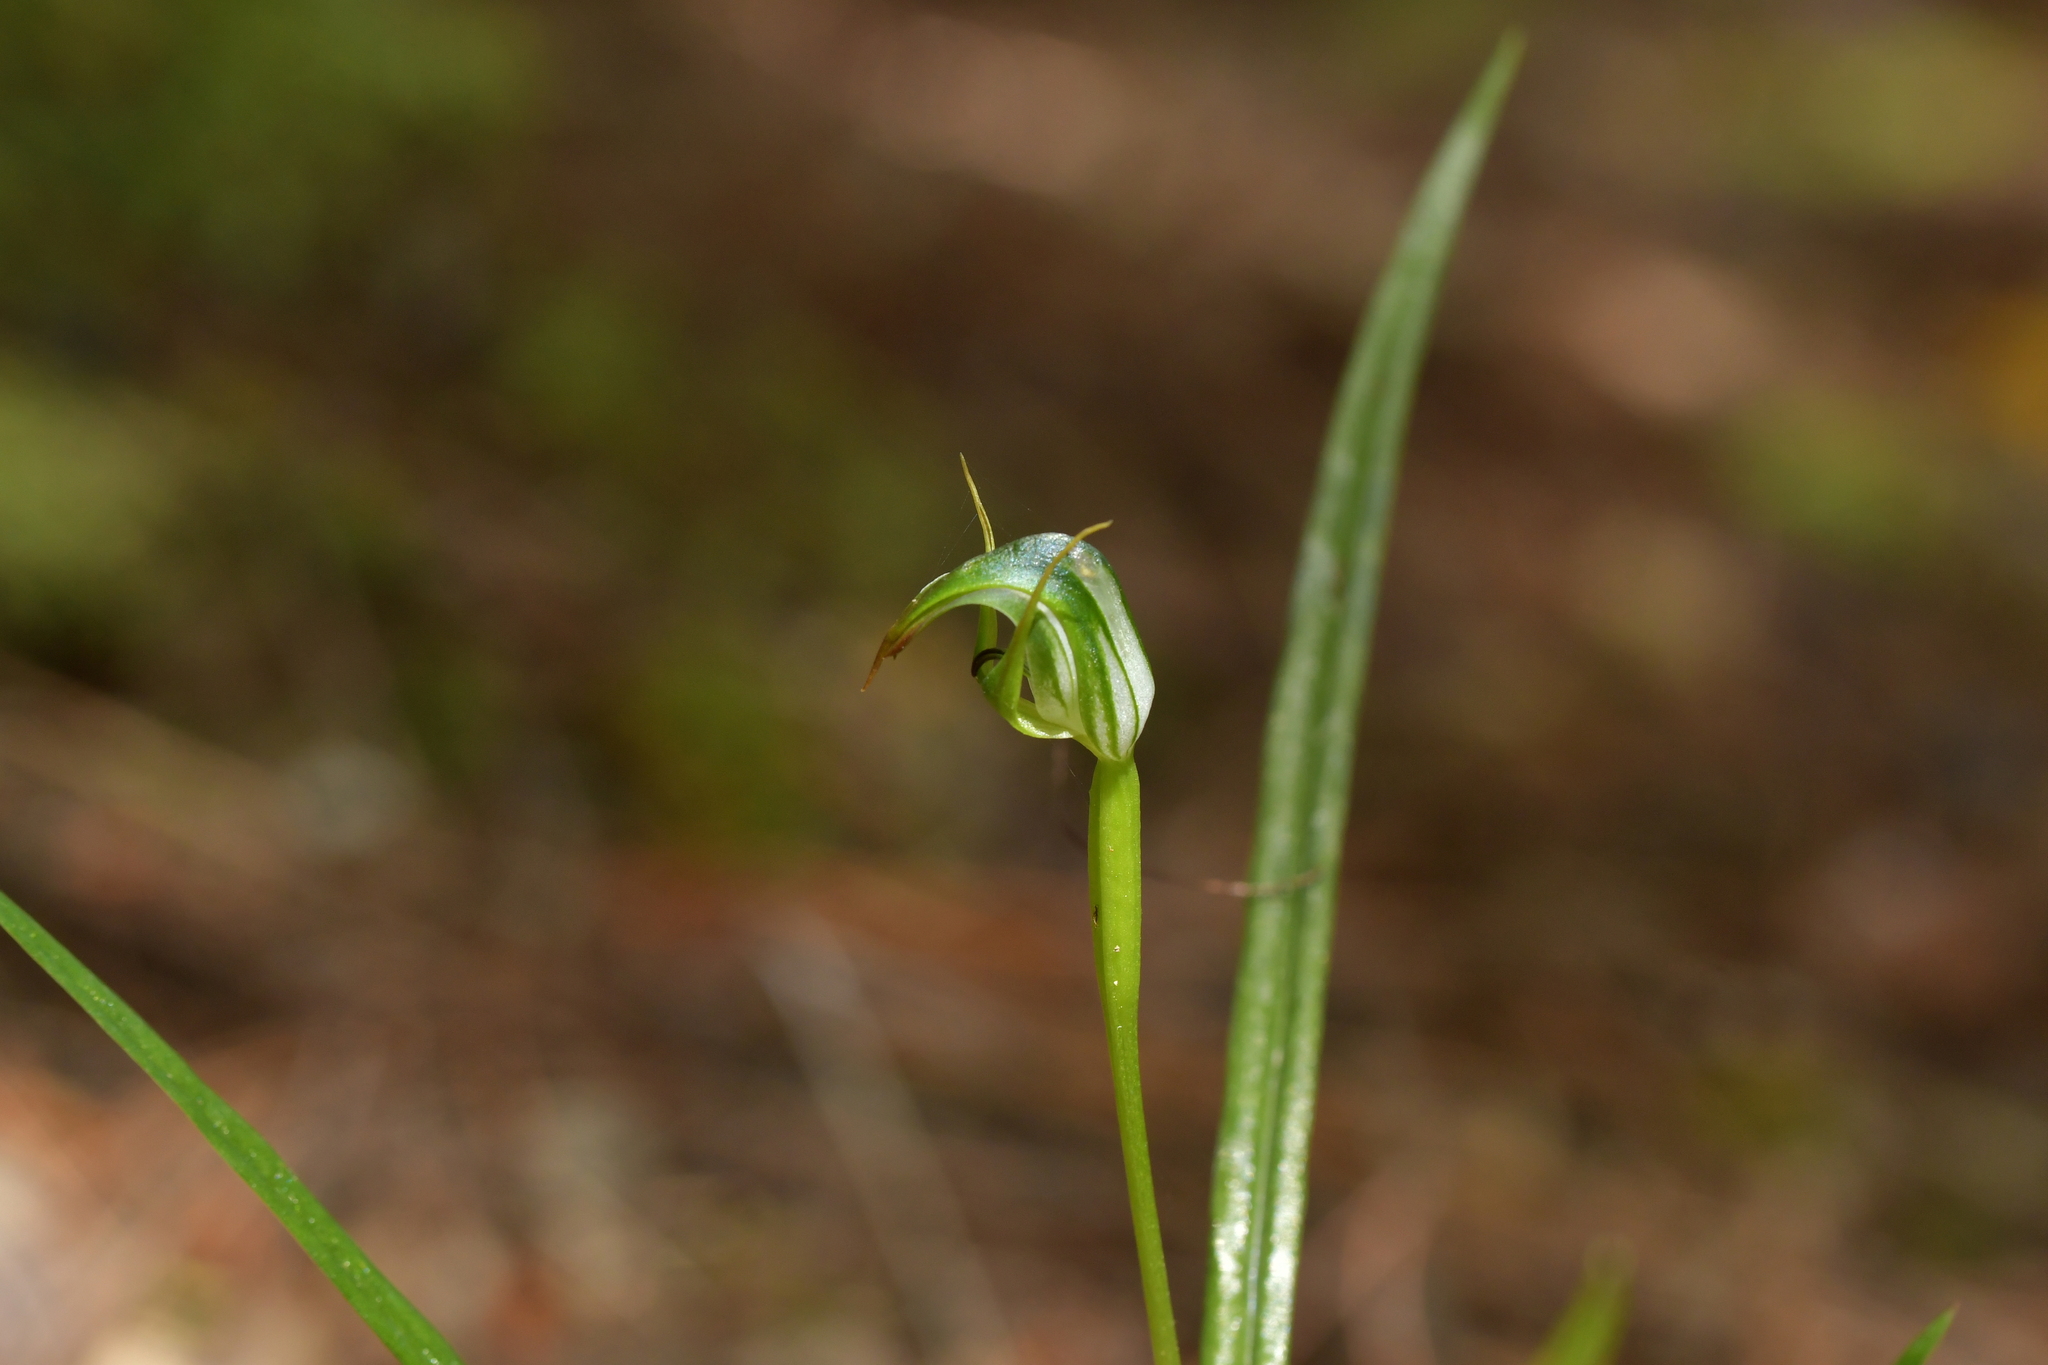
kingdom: Plantae
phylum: Tracheophyta
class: Liliopsida
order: Asparagales
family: Orchidaceae
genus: Pterostylis
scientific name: Pterostylis graminea
